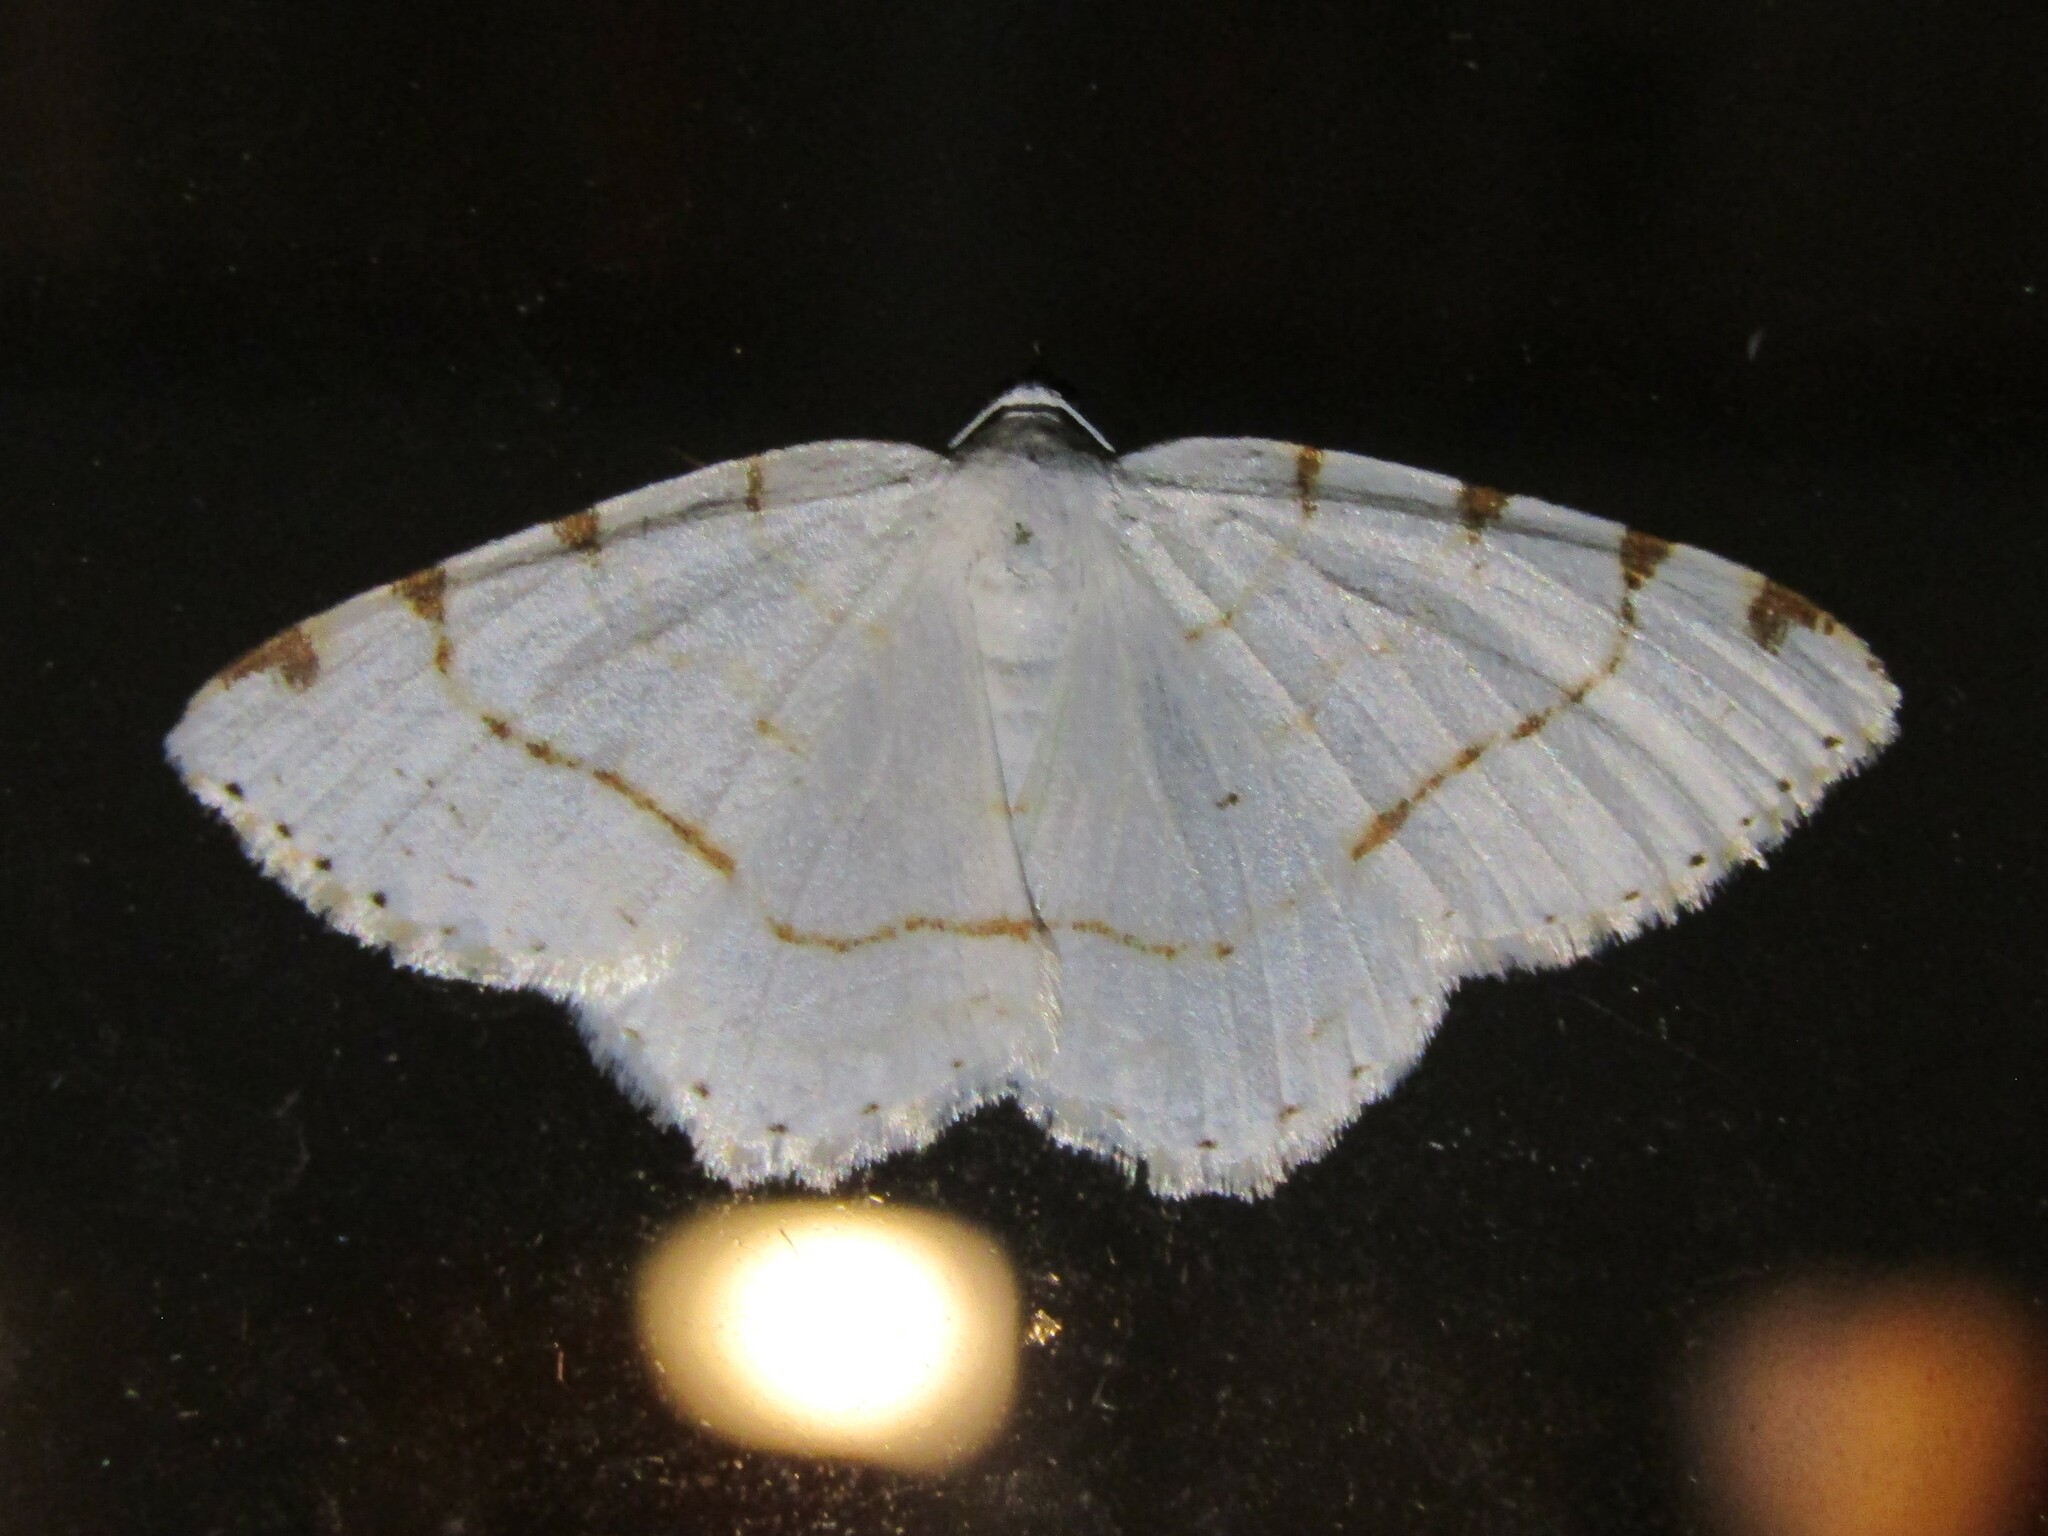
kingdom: Animalia
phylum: Arthropoda
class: Insecta
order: Lepidoptera
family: Geometridae
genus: Macaria
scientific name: Macaria pustularia
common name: Lesser maple spanworm moth
